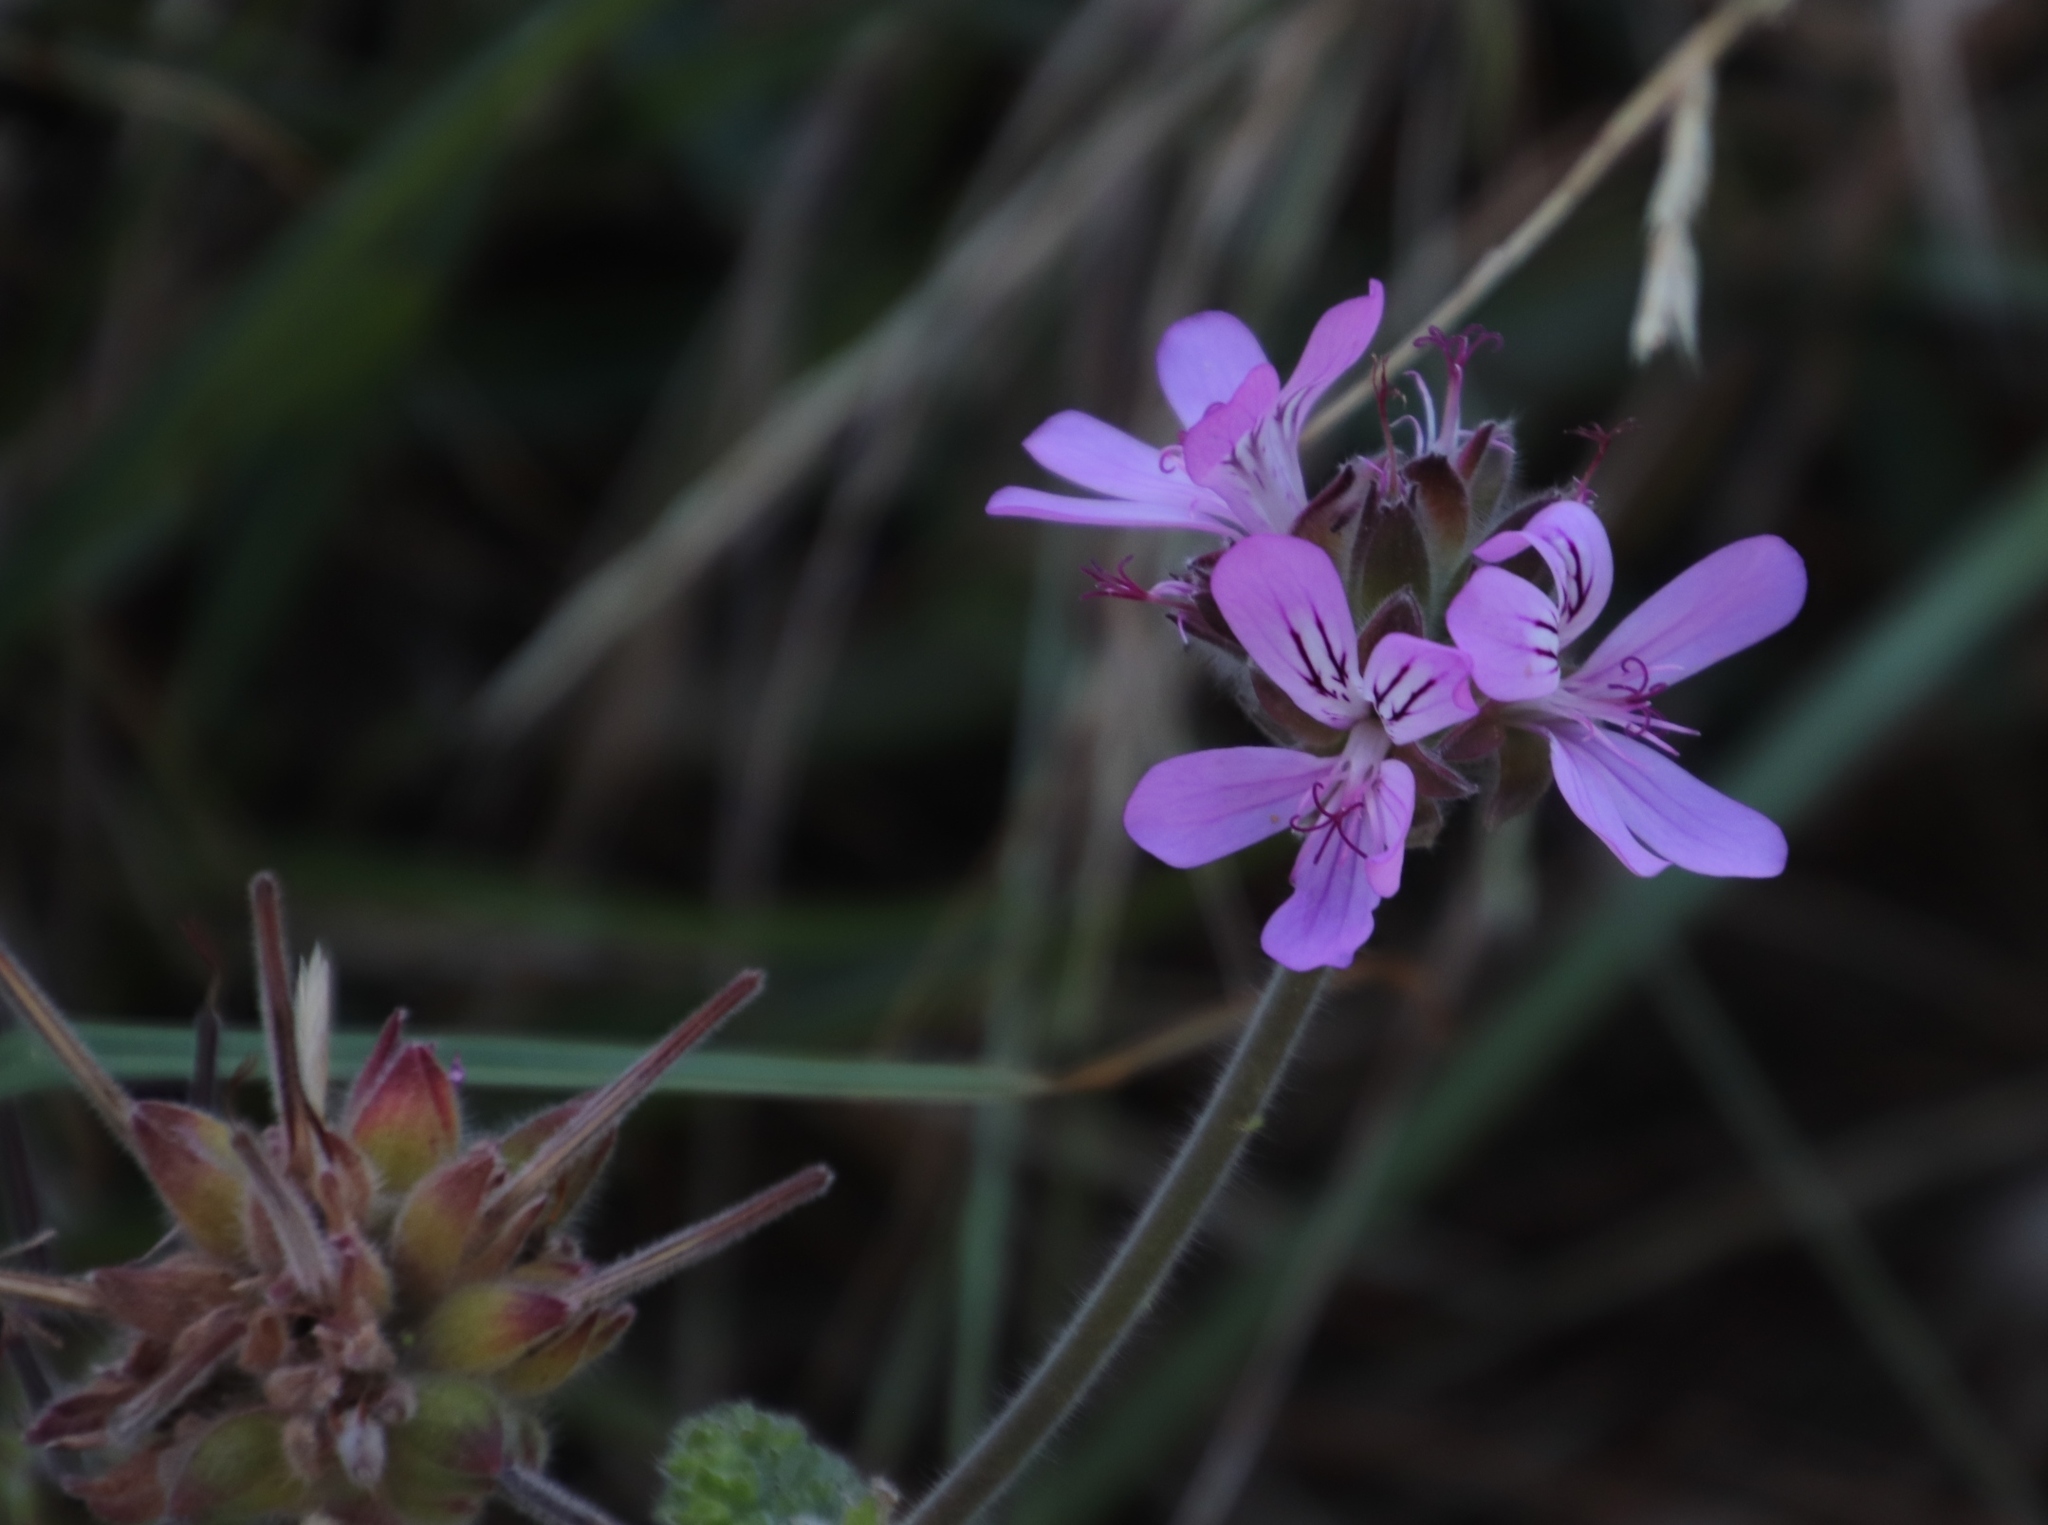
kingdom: Plantae
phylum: Tracheophyta
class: Magnoliopsida
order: Geraniales
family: Geraniaceae
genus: Pelargonium
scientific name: Pelargonium capitatum
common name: Rose scented geranium
